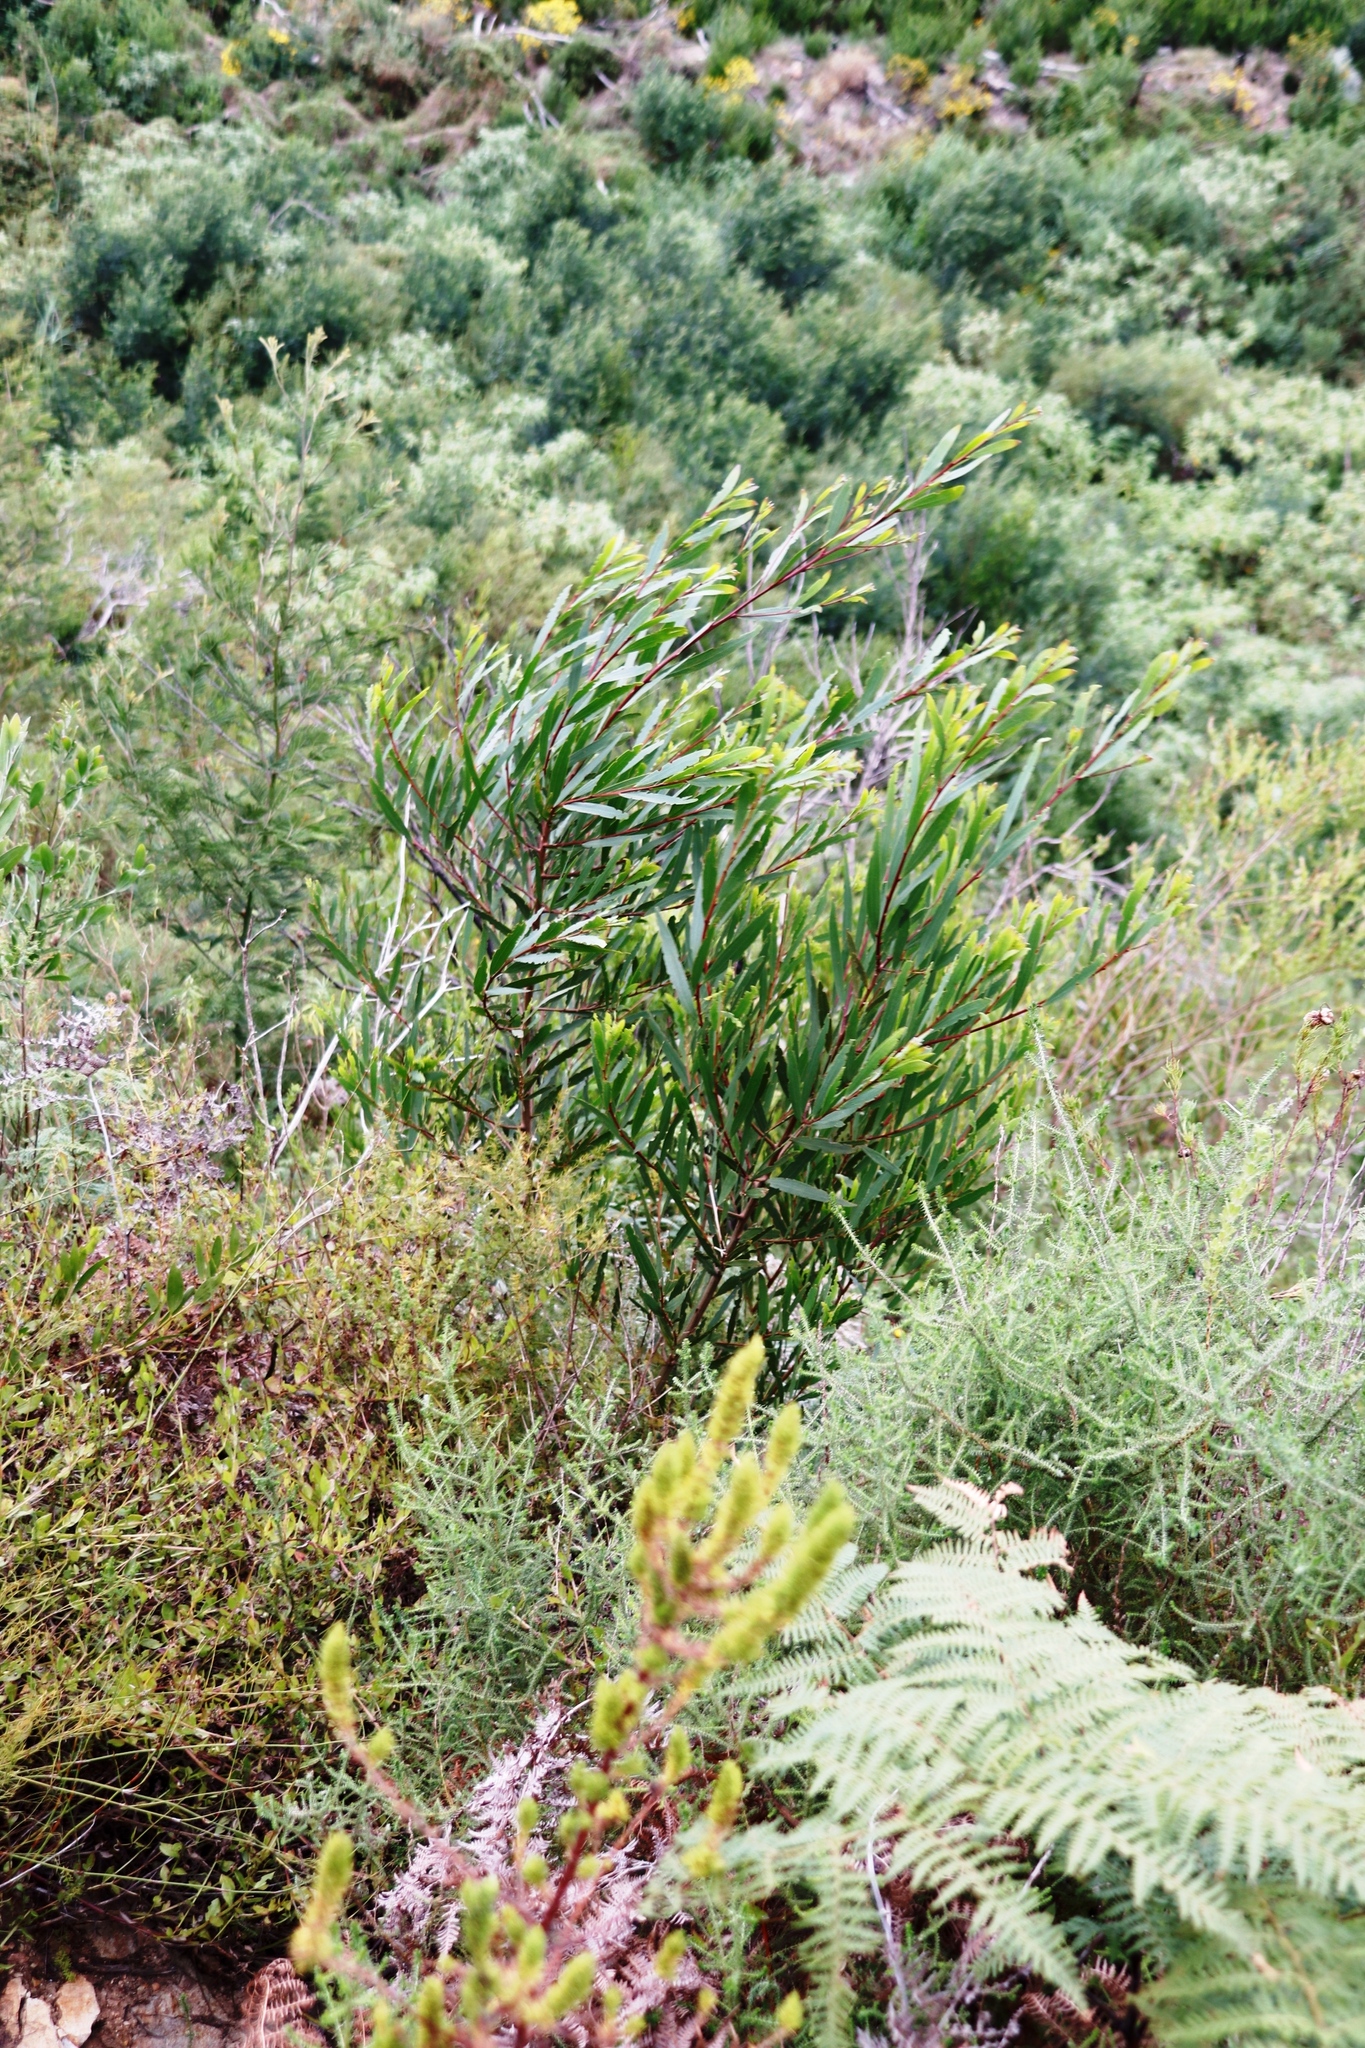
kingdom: Plantae
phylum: Tracheophyta
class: Magnoliopsida
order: Fabales
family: Fabaceae
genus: Acacia
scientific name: Acacia longifolia
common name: Sydney golden wattle
